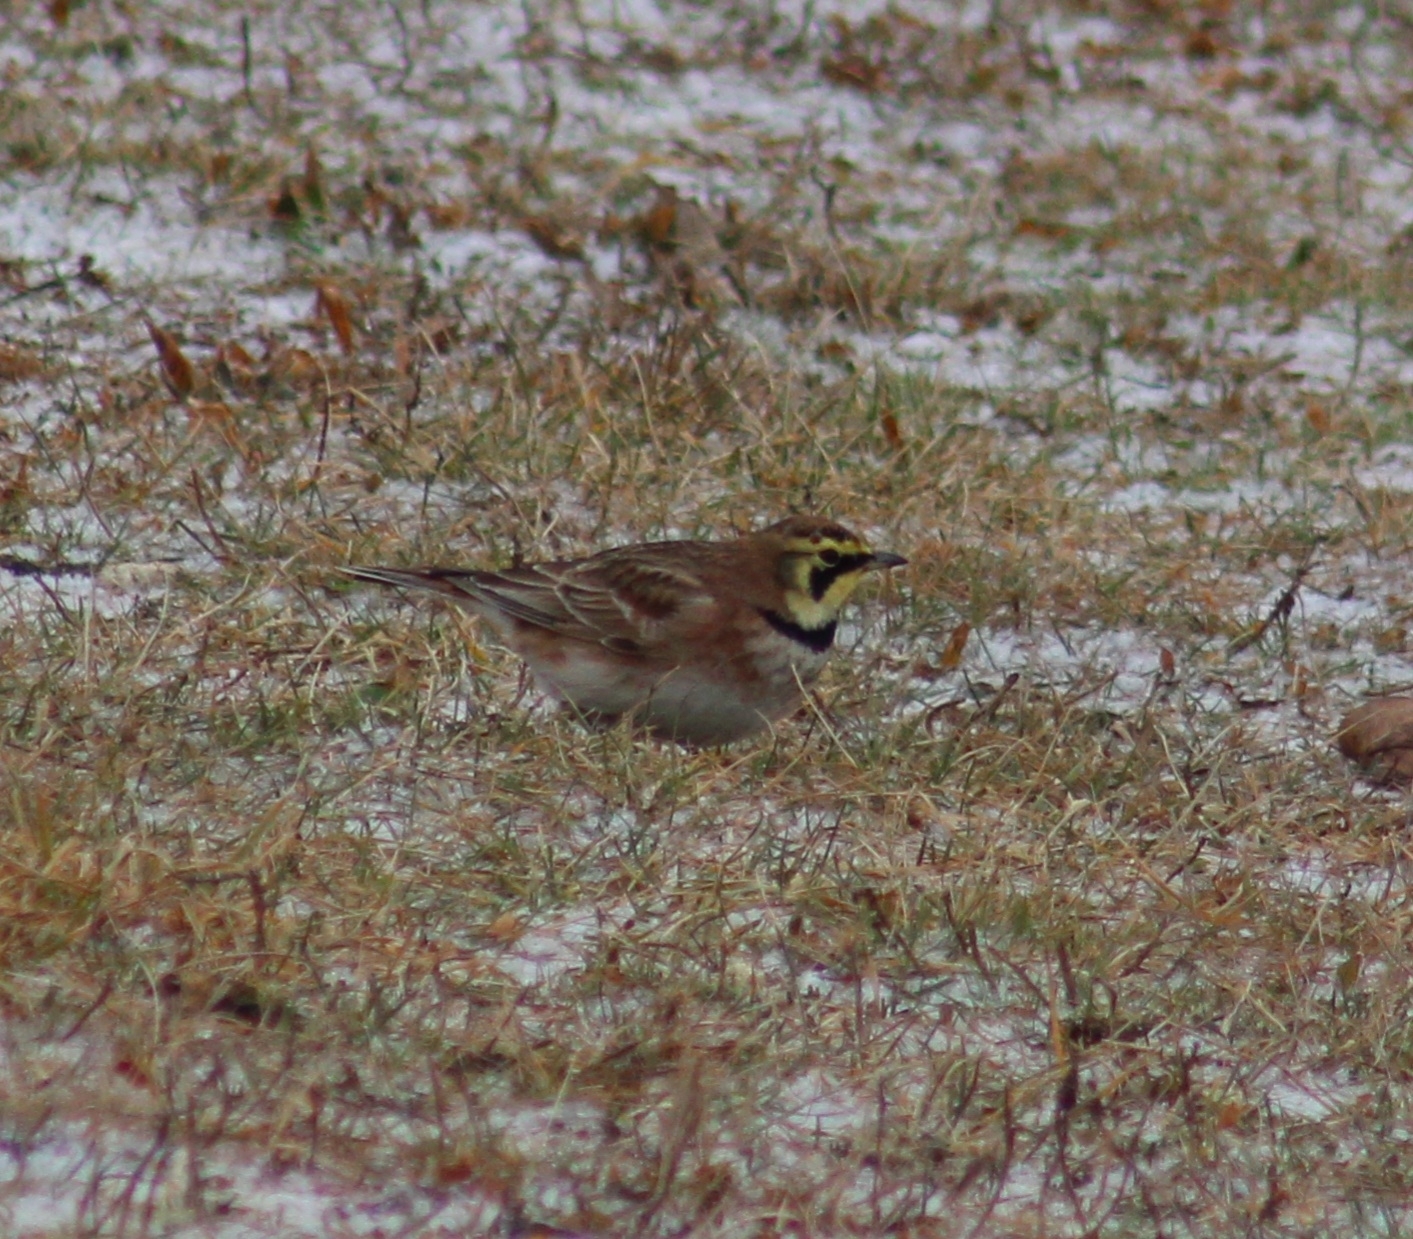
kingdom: Animalia
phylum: Chordata
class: Aves
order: Passeriformes
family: Alaudidae
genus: Eremophila
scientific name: Eremophila alpestris
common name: Horned lark
